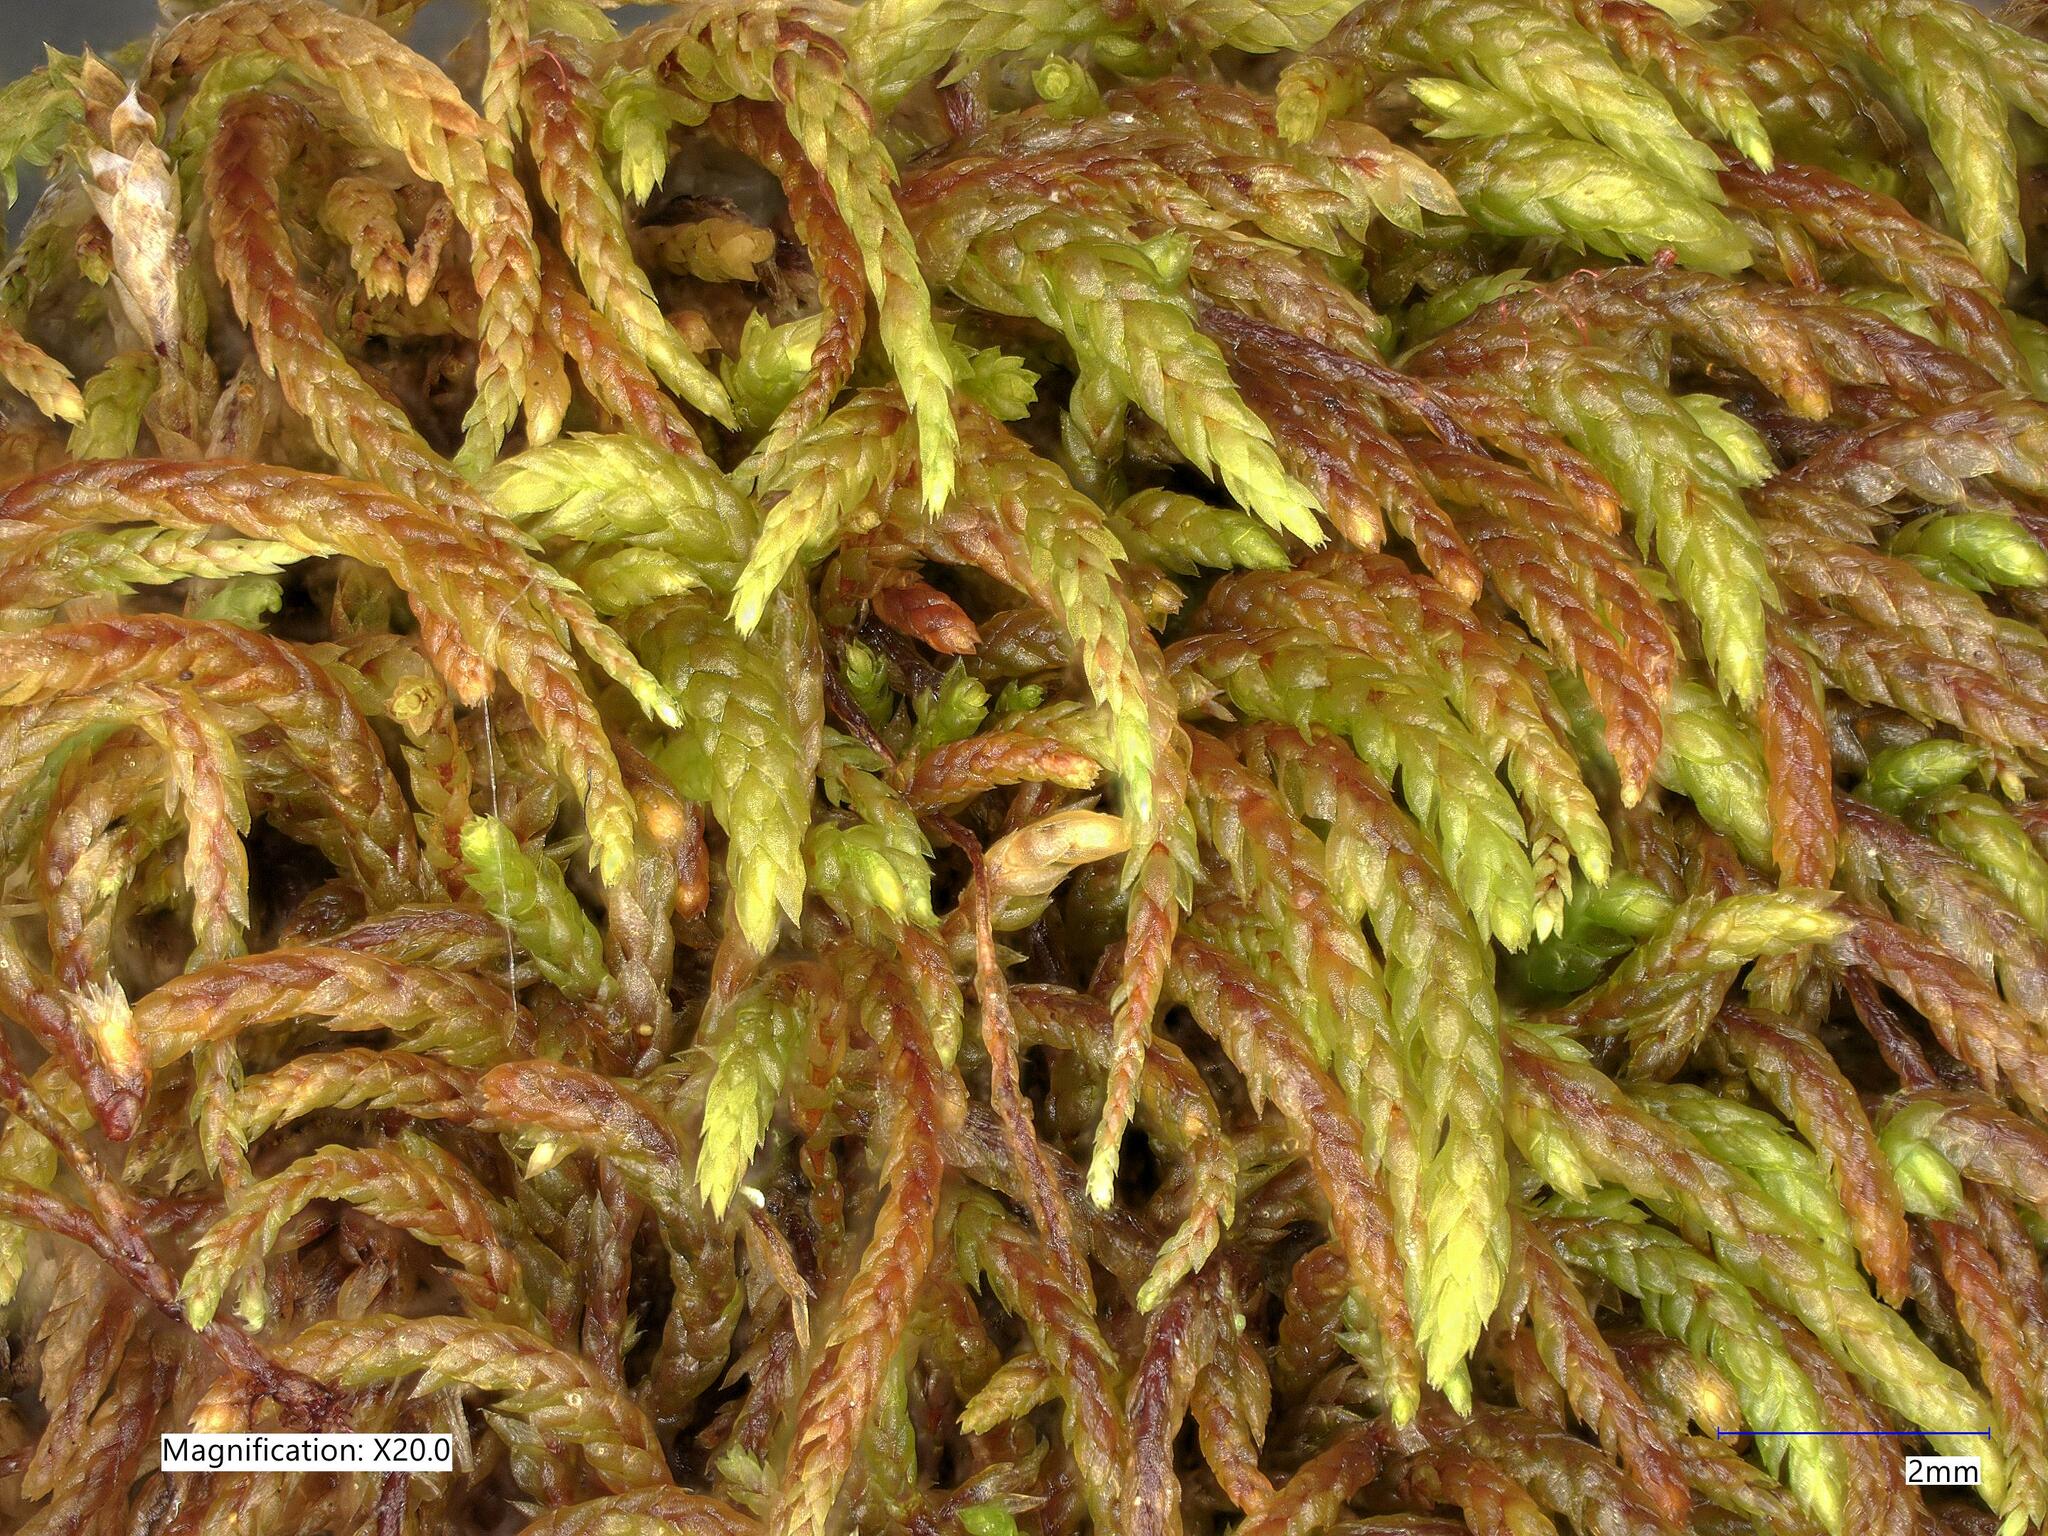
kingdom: Plantae
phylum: Bryophyta
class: Bryopsida
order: Hypnales
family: Pterigynandraceae
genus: Pterigynandrum
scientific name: Pterigynandrum filiforme
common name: Capillary wing moss
